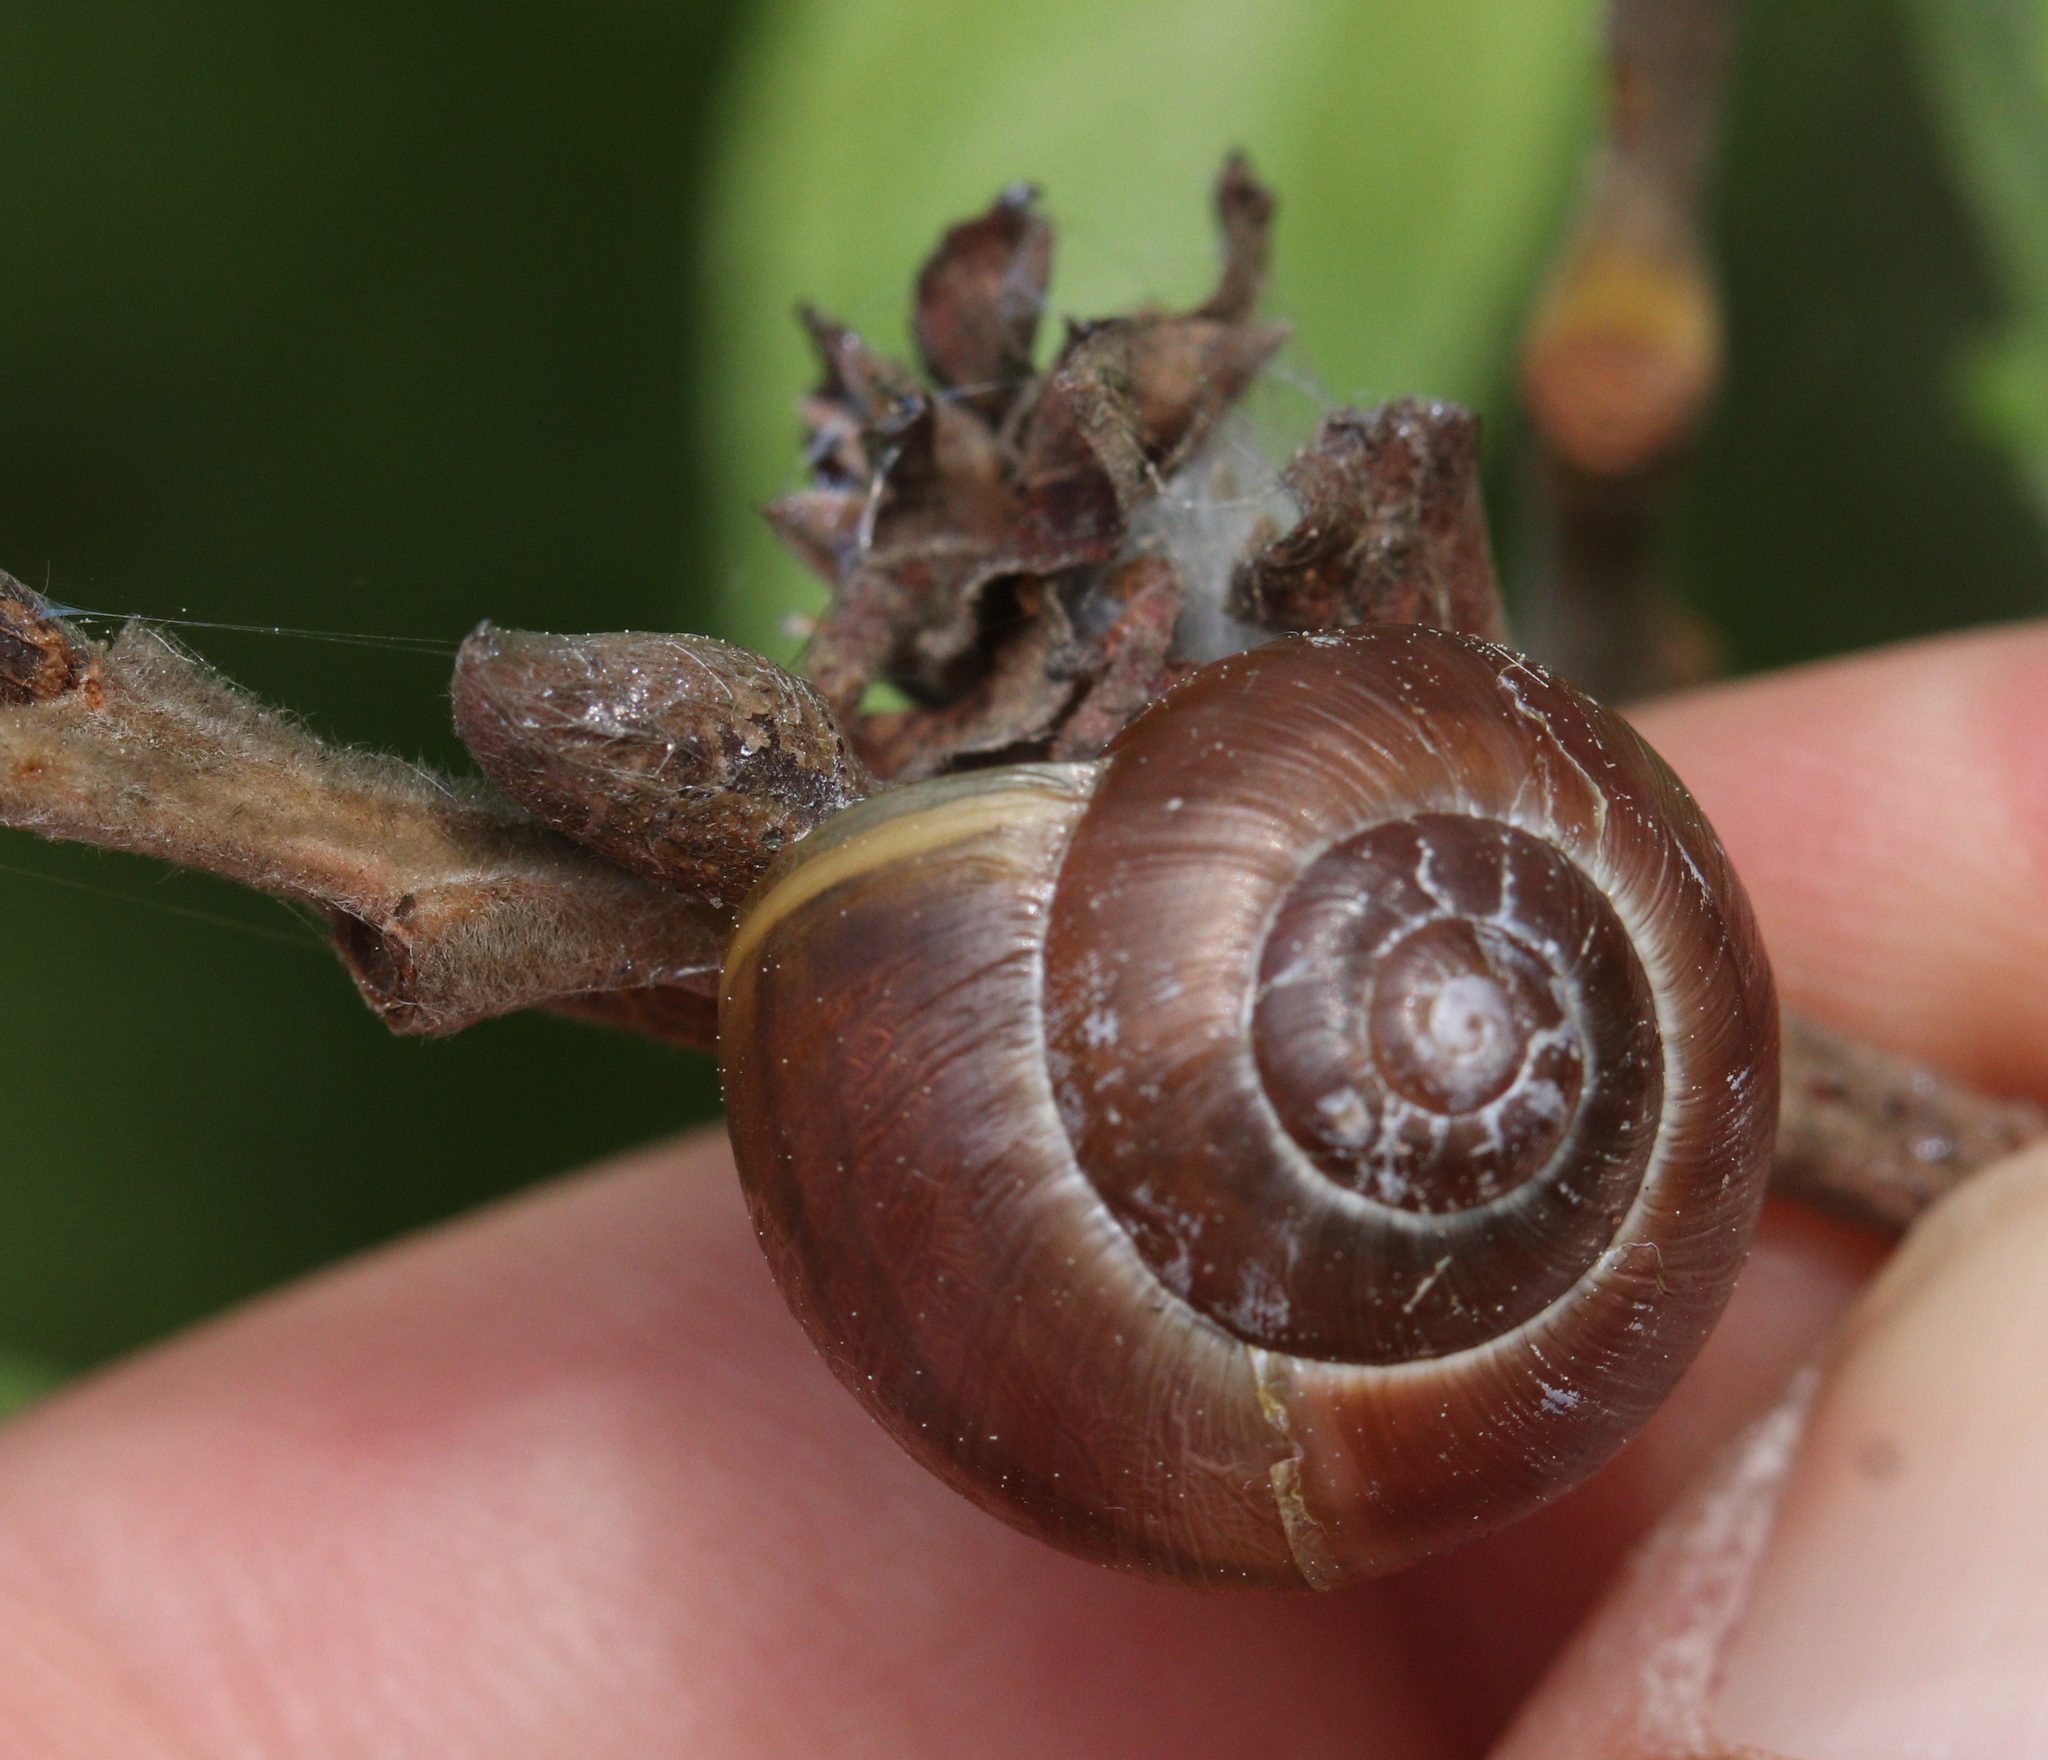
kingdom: Animalia
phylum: Mollusca
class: Gastropoda
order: Stylommatophora
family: Helicidae
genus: Cepaea
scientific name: Cepaea
